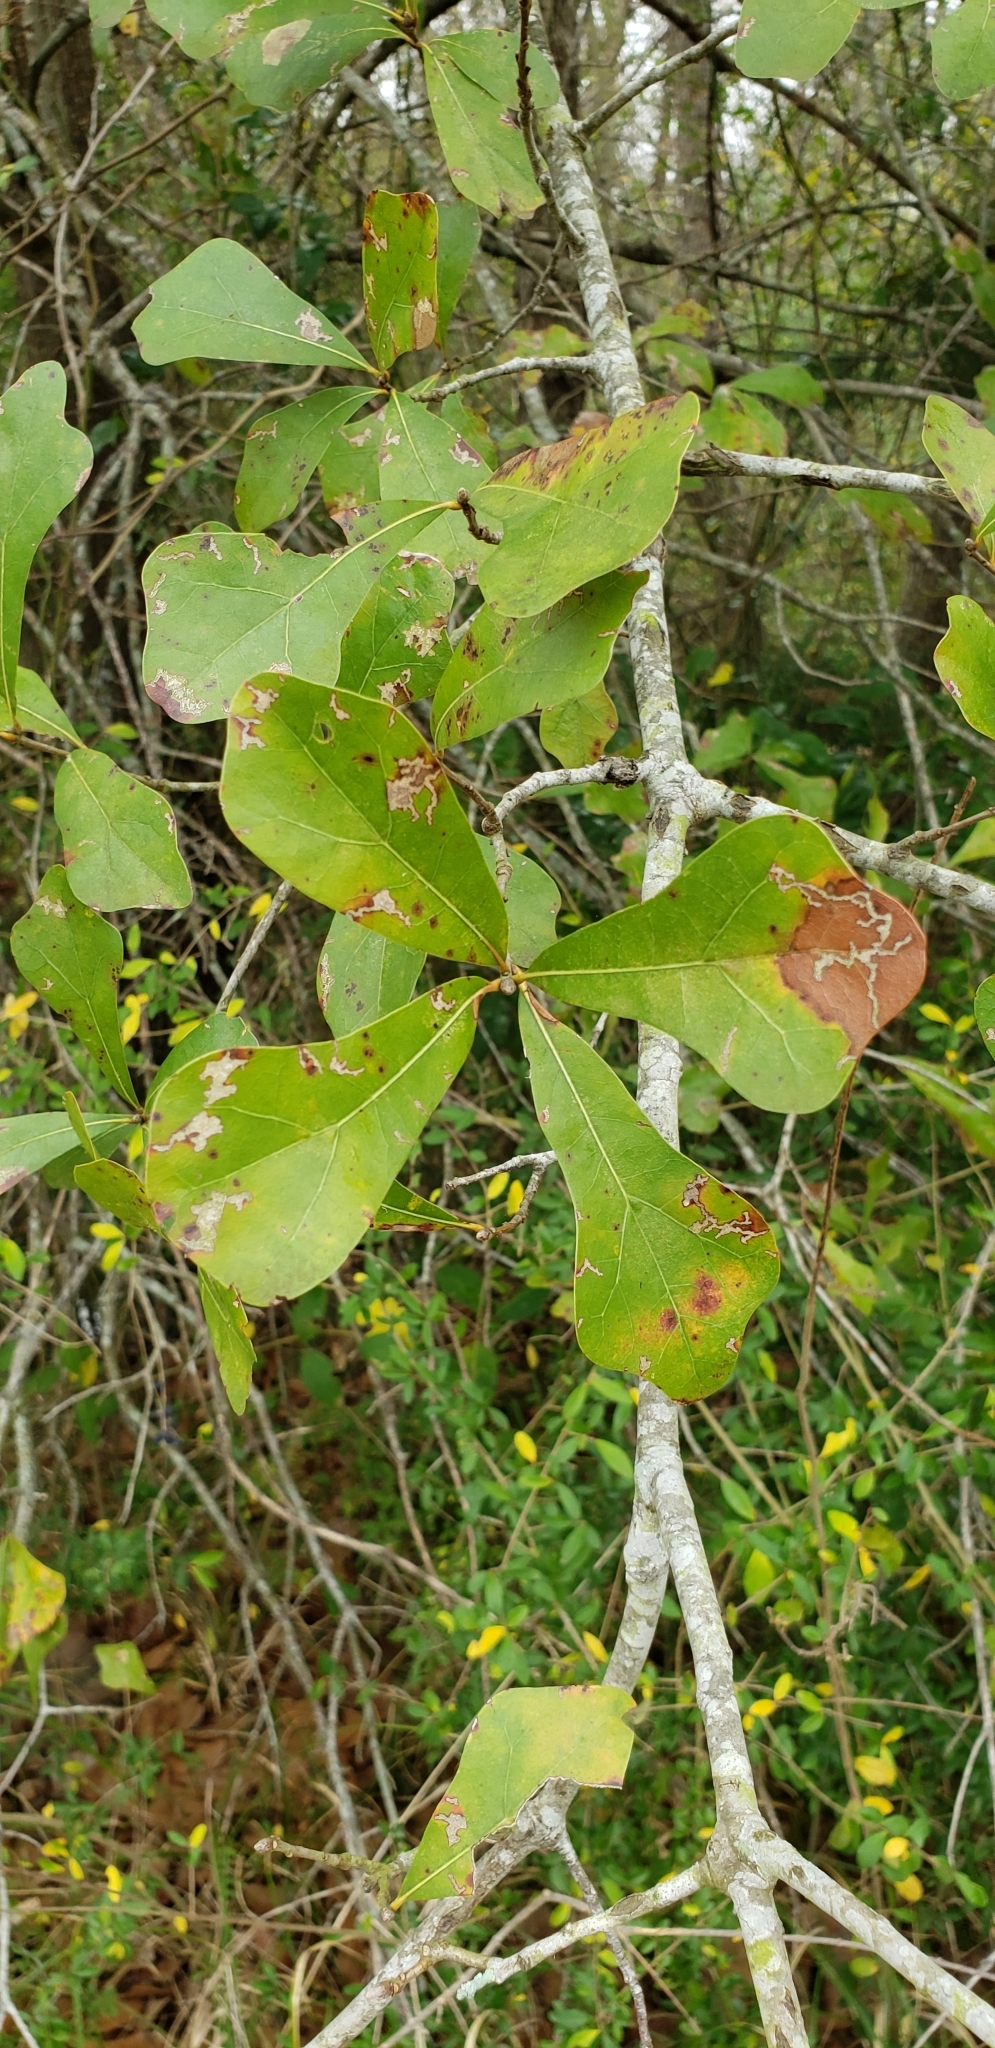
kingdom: Plantae
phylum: Tracheophyta
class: Magnoliopsida
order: Fagales
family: Fagaceae
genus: Quercus
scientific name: Quercus nigra
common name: Water oak
